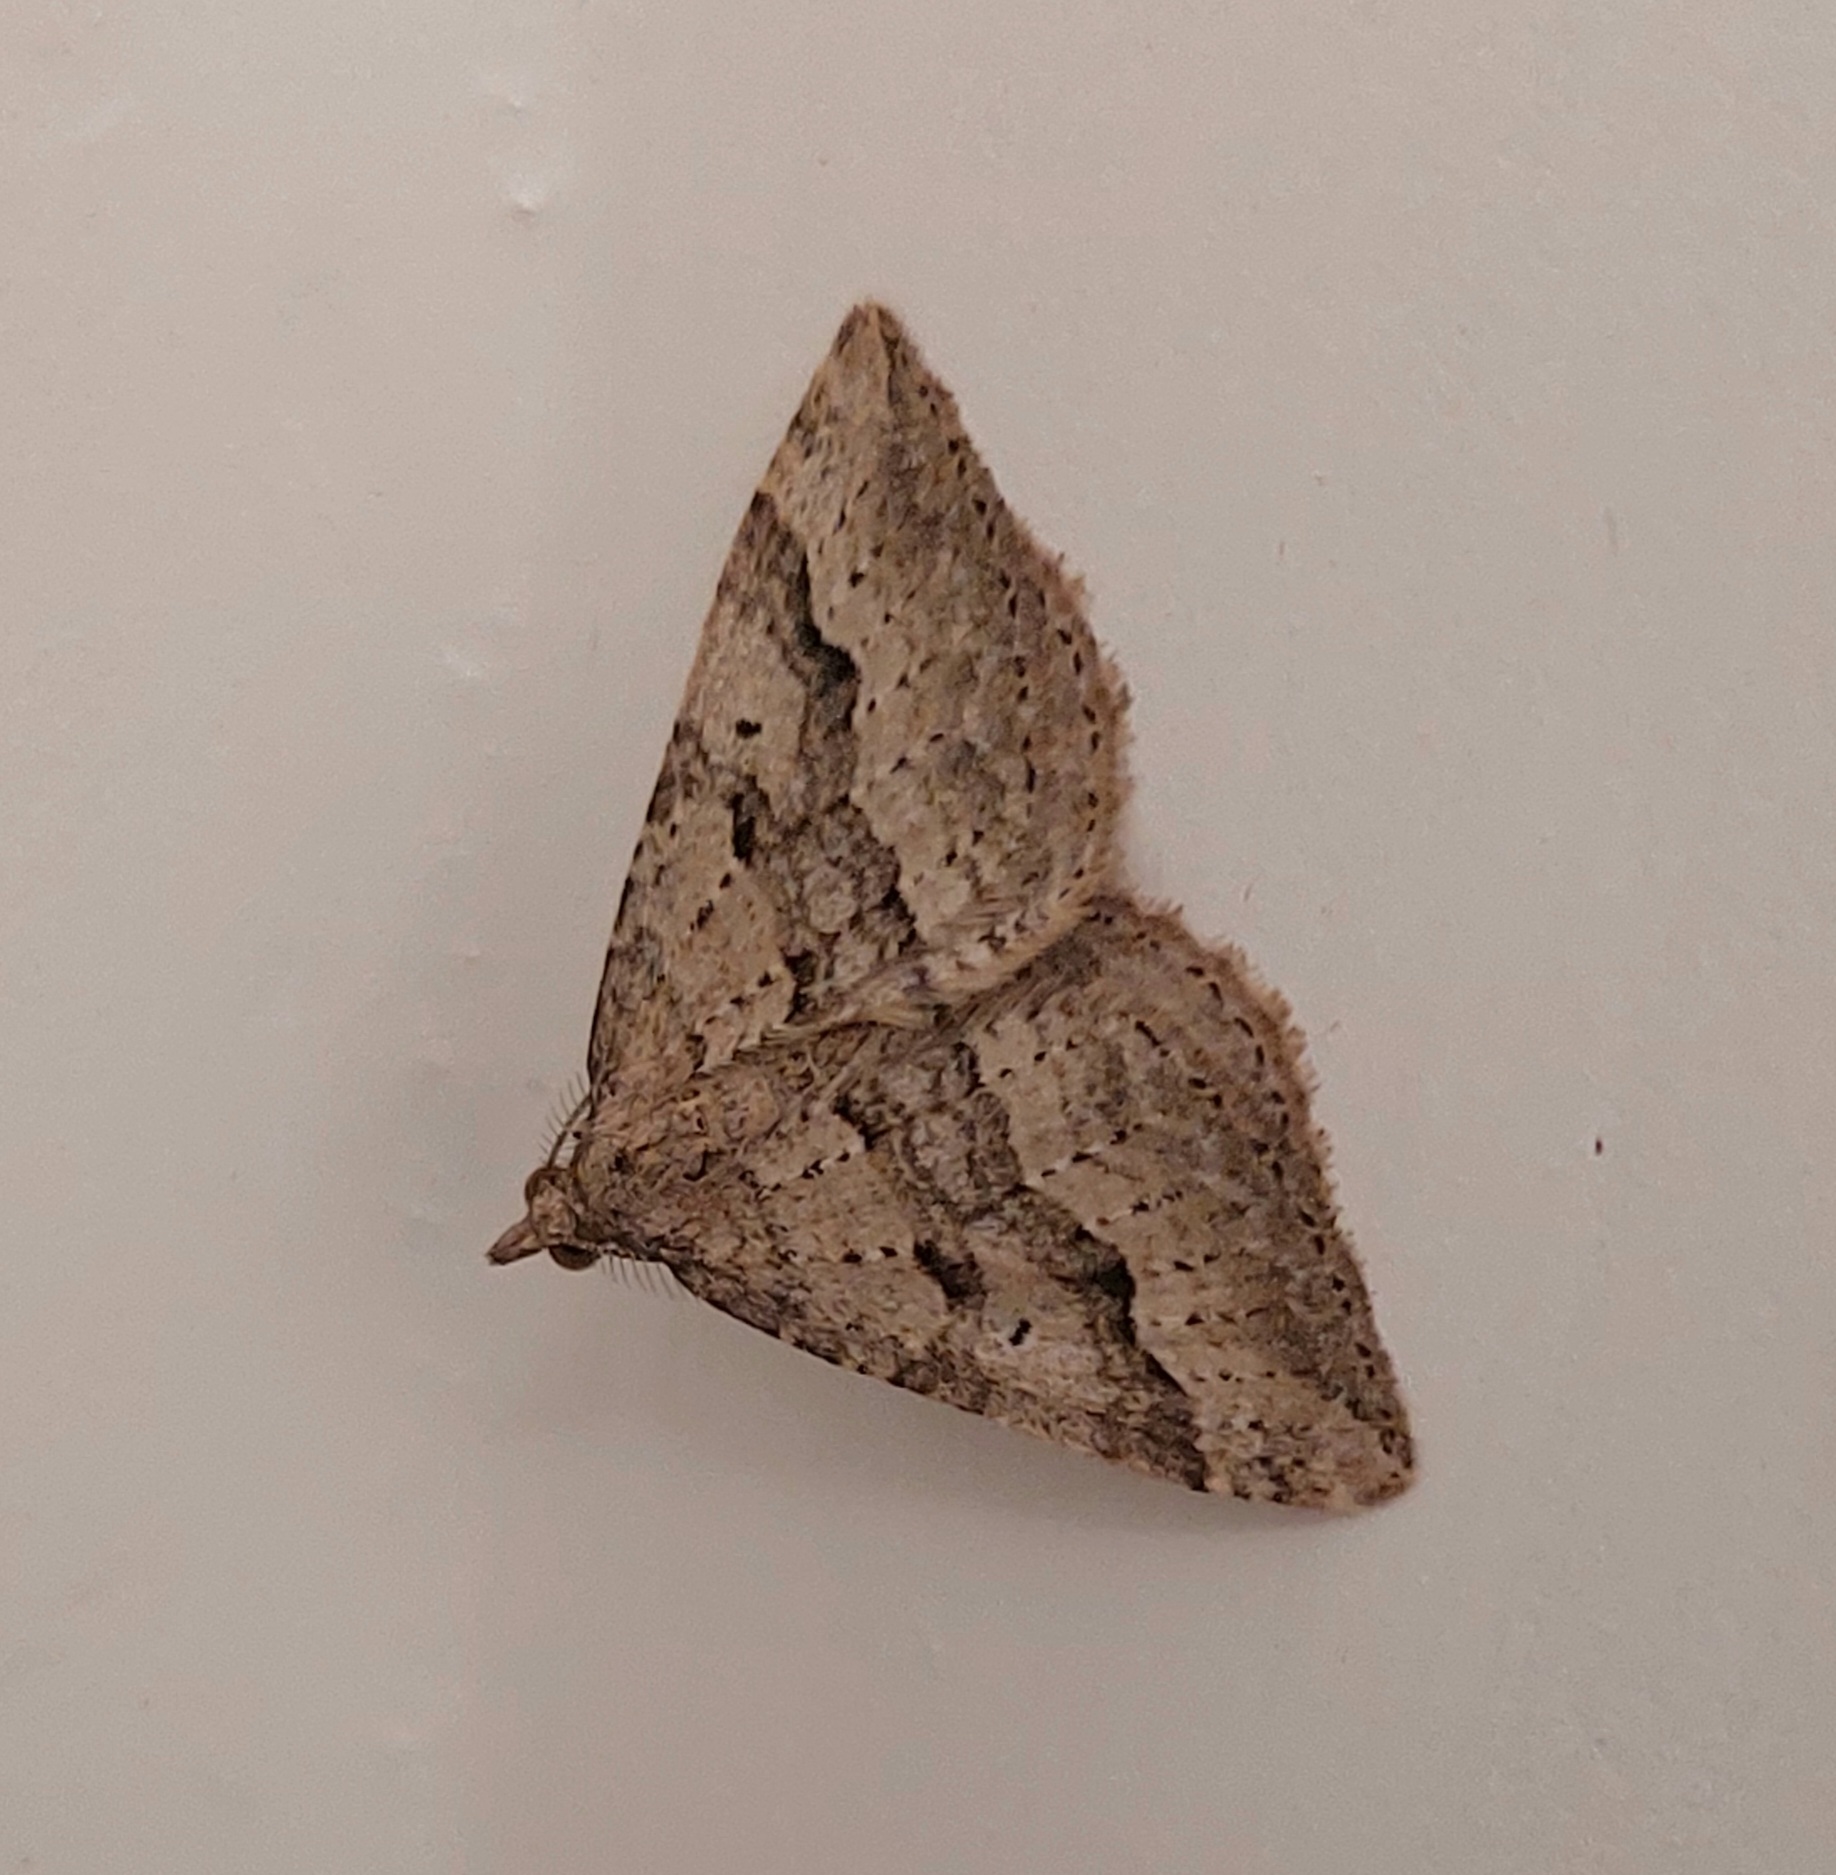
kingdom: Animalia
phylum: Arthropoda
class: Insecta
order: Lepidoptera
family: Geometridae
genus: Epyaxa
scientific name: Epyaxa rosearia
